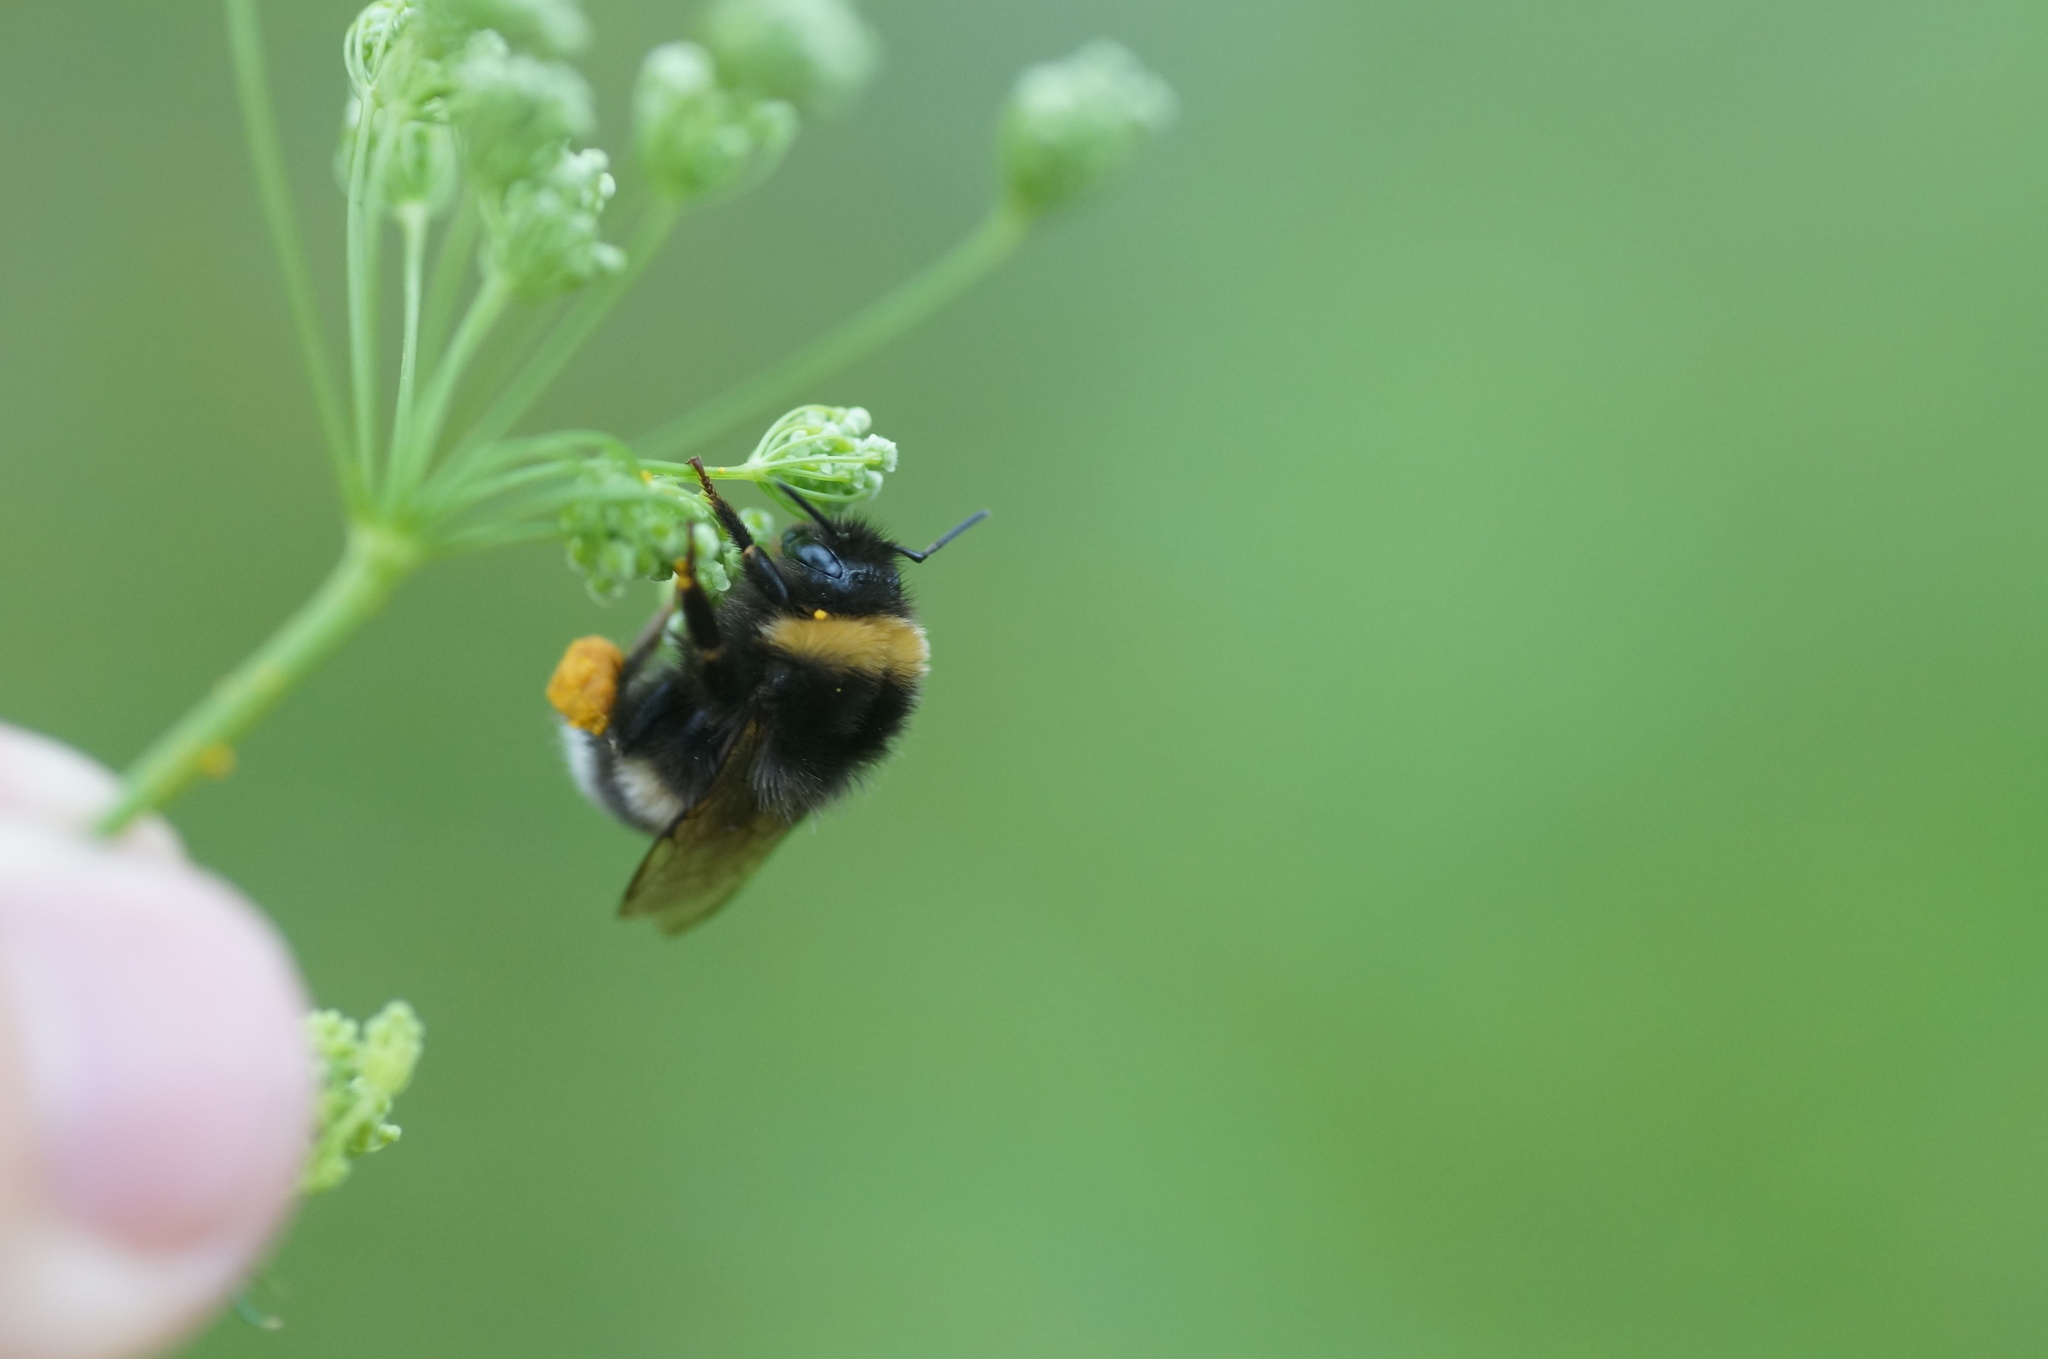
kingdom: Animalia
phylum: Arthropoda
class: Insecta
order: Hymenoptera
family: Apidae
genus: Bombus
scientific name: Bombus
